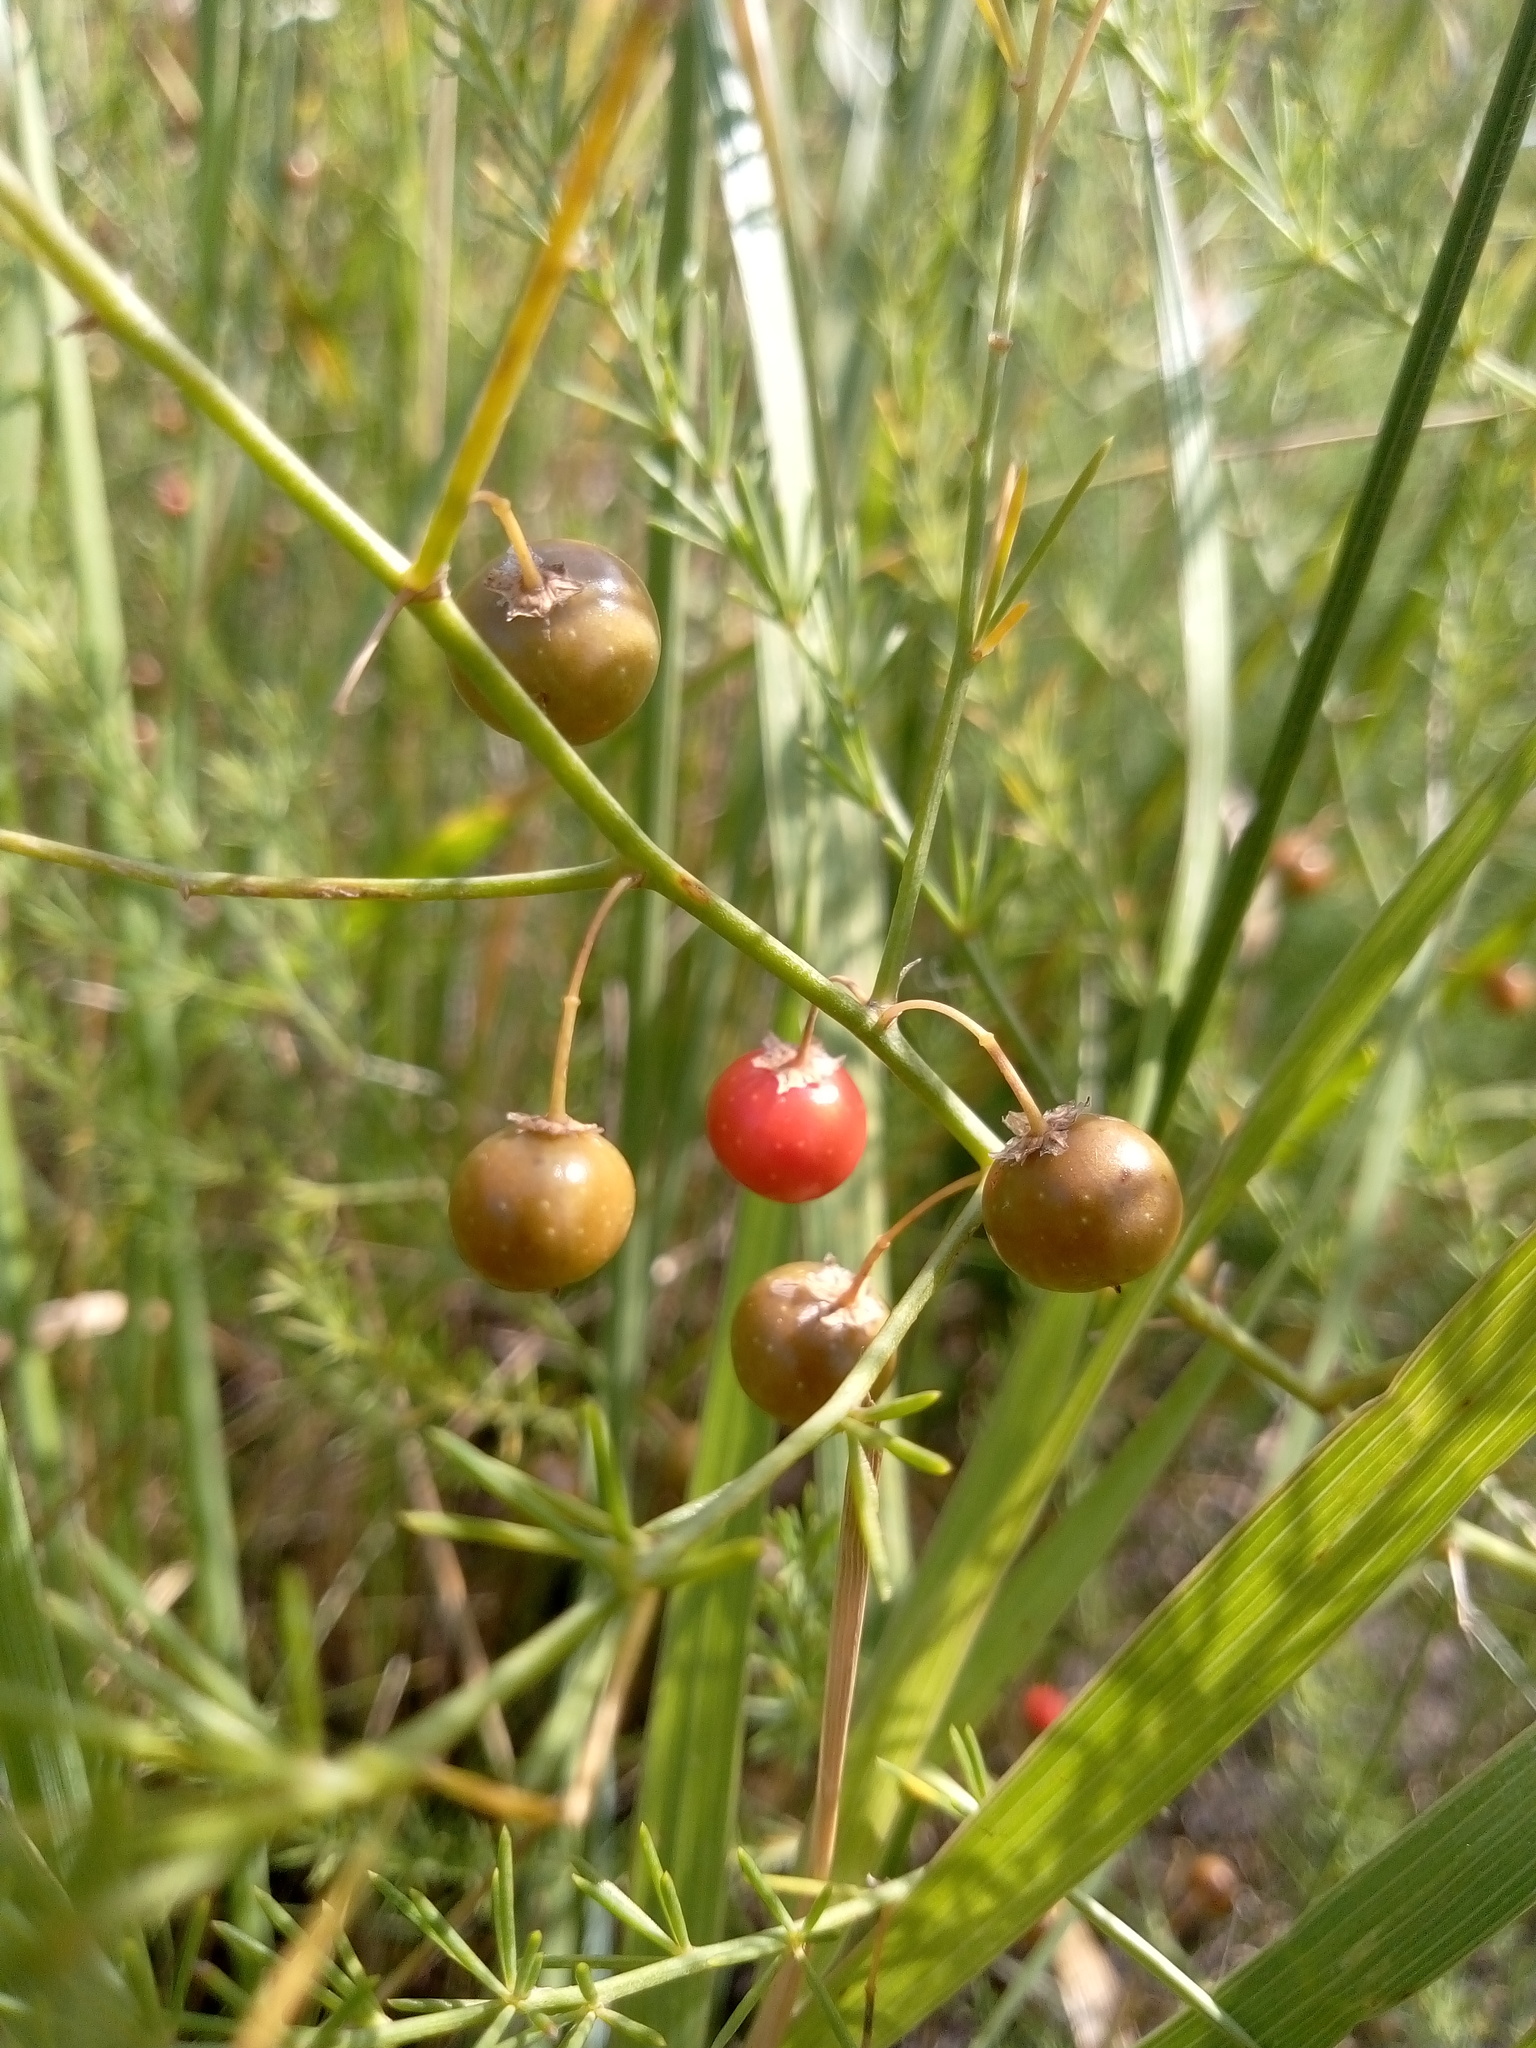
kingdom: Plantae
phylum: Tracheophyta
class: Liliopsida
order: Asparagales
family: Asparagaceae
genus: Asparagus
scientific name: Asparagus officinalis
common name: Garden asparagus
